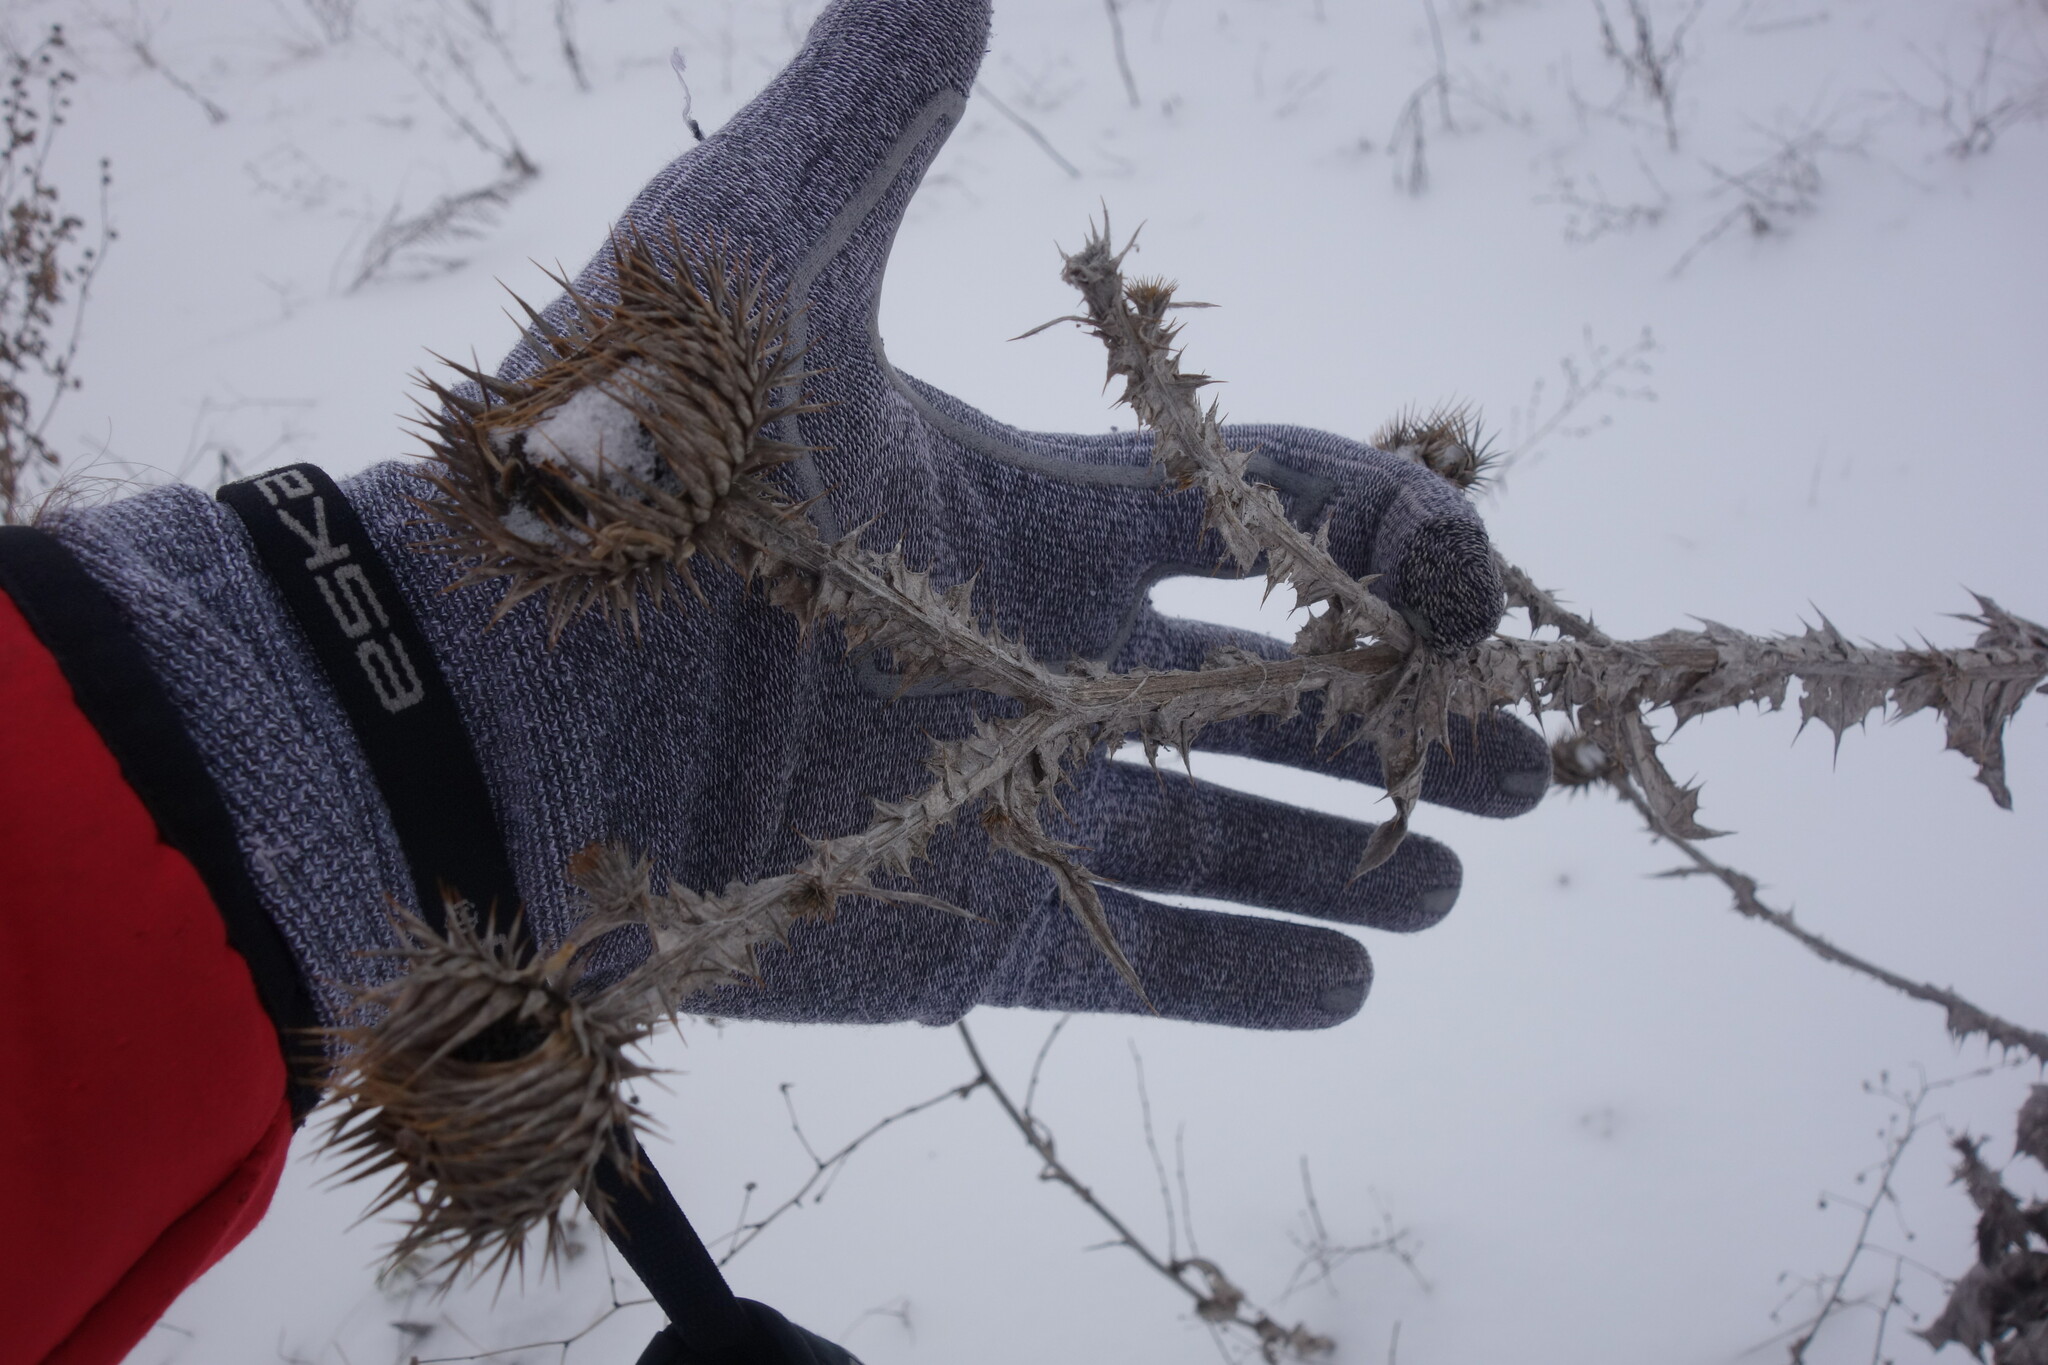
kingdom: Plantae
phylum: Tracheophyta
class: Magnoliopsida
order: Asterales
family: Asteraceae
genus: Onopordum
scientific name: Onopordum acanthium
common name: Scotch thistle
